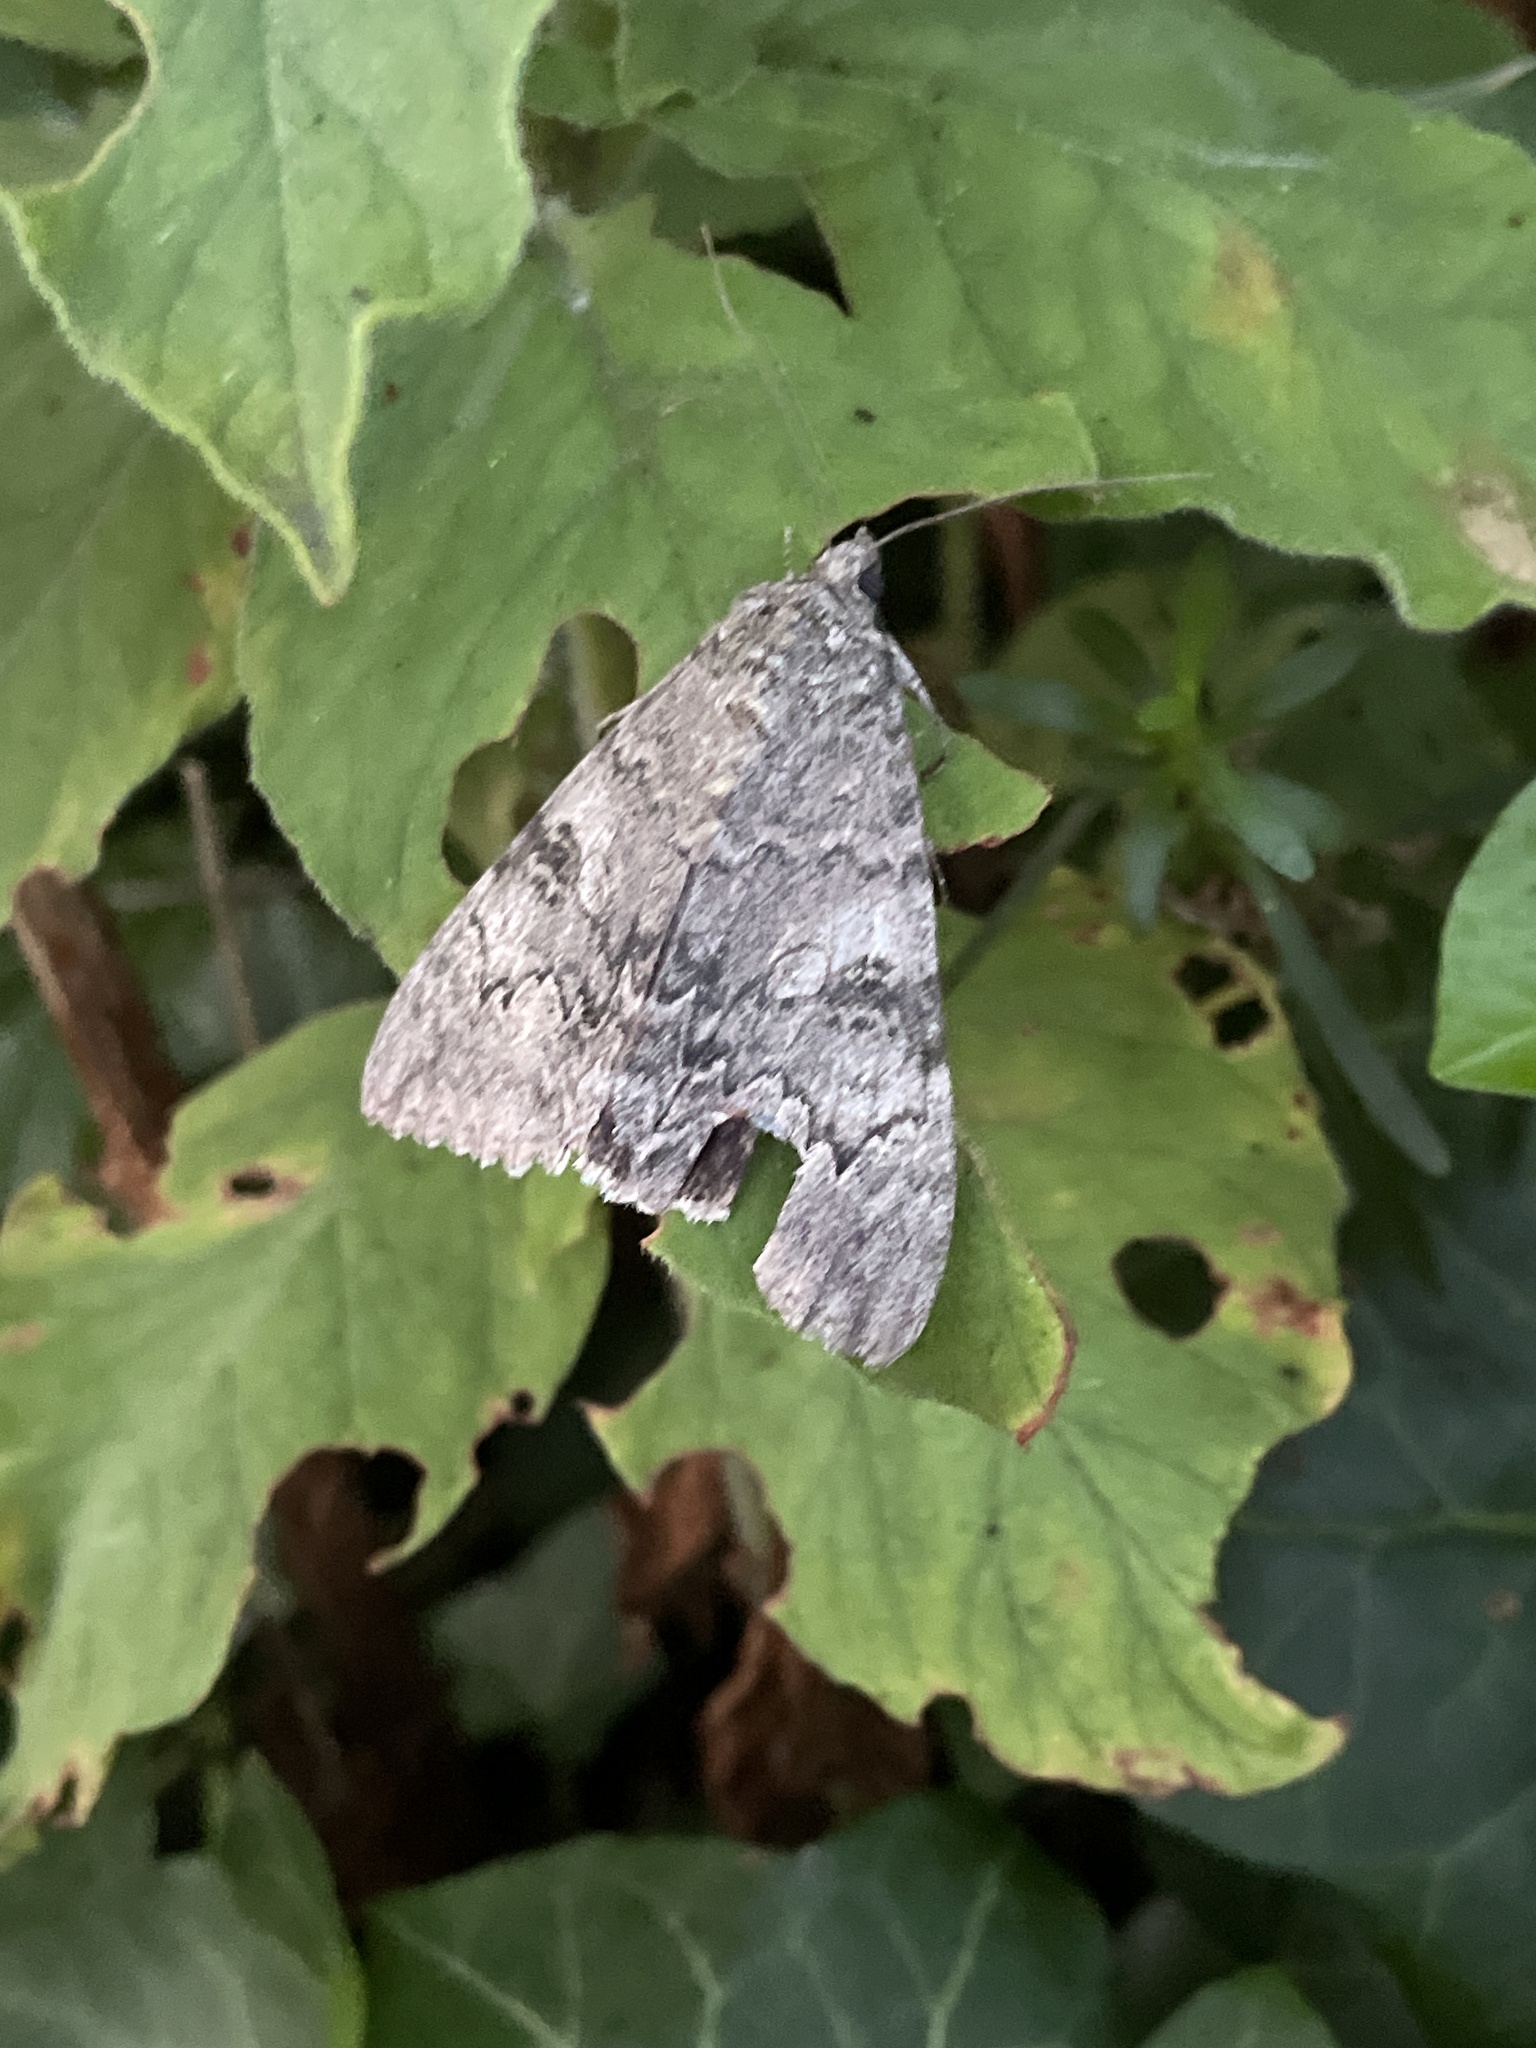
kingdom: Animalia
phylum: Arthropoda
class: Insecta
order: Lepidoptera
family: Erebidae
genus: Catocala
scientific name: Catocala nupta
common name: Red underwing
